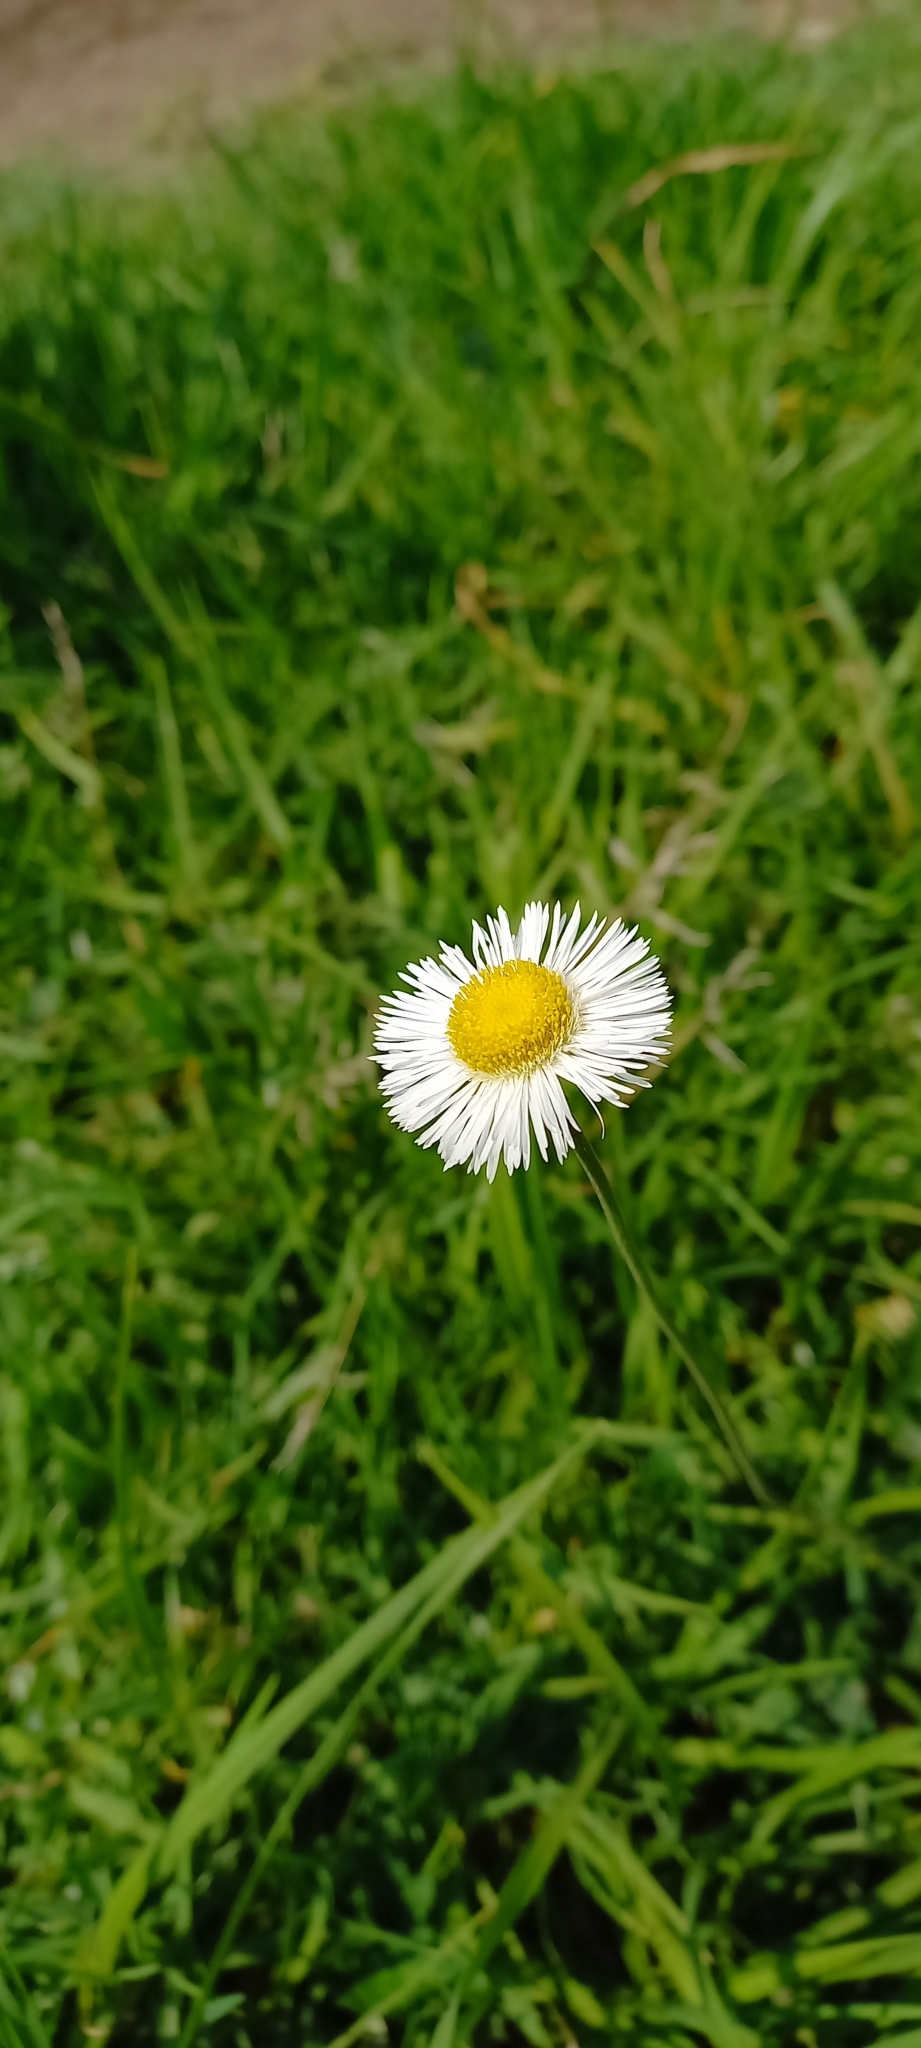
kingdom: Plantae
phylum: Tracheophyta
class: Magnoliopsida
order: Asterales
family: Asteraceae
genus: Erigeron
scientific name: Erigeron longipes
